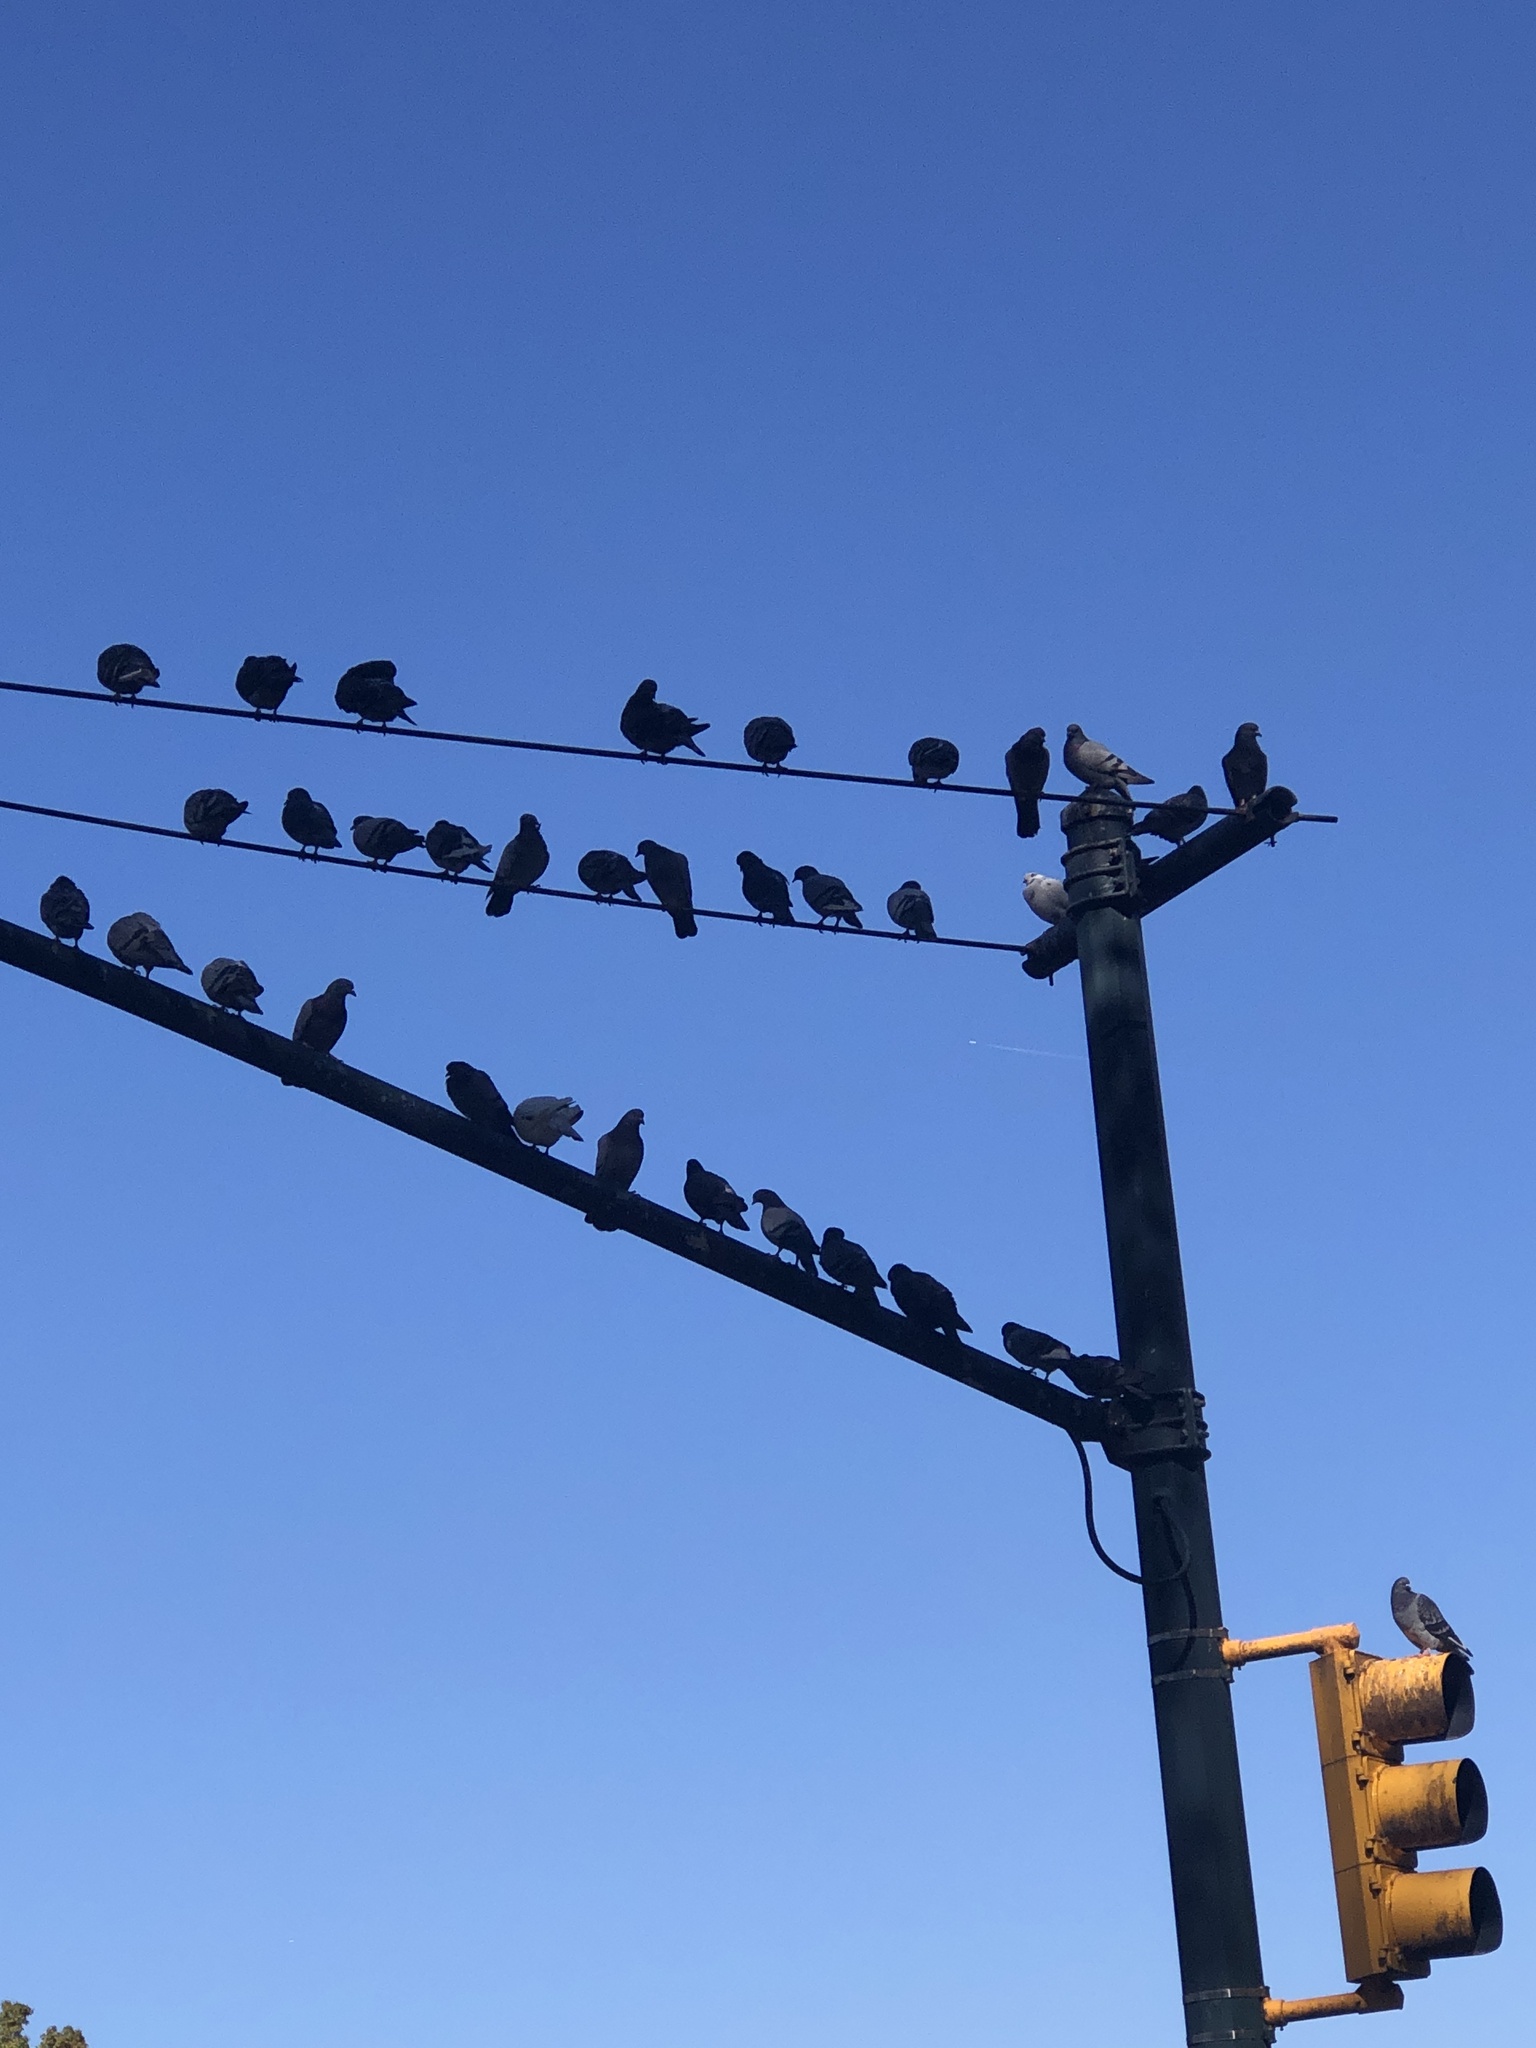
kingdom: Animalia
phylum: Chordata
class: Aves
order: Columbiformes
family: Columbidae
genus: Columba
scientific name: Columba livia
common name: Rock pigeon
